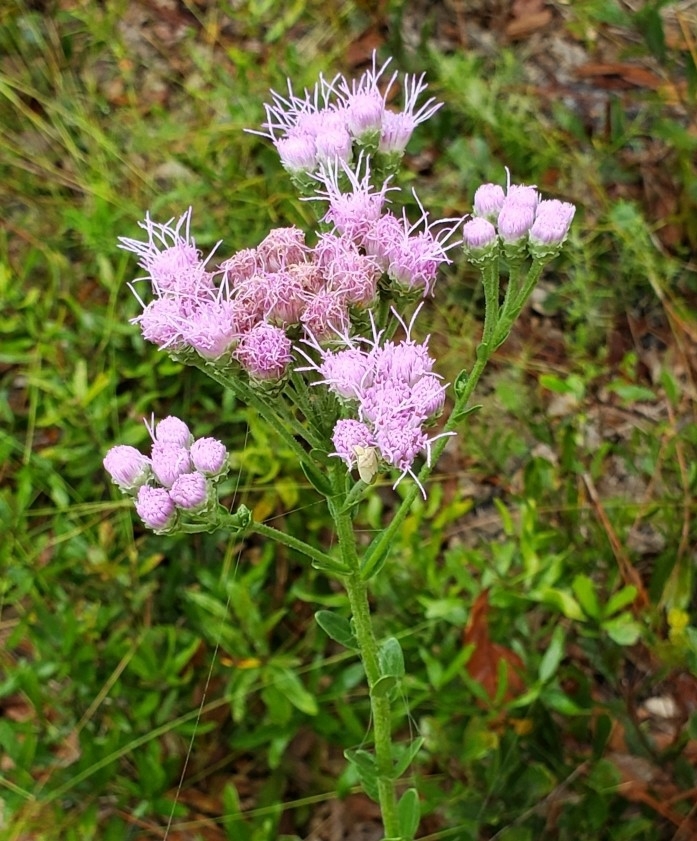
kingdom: Plantae
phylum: Tracheophyta
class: Magnoliopsida
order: Asterales
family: Asteraceae
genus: Carphephorus
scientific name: Carphephorus corymbosus
